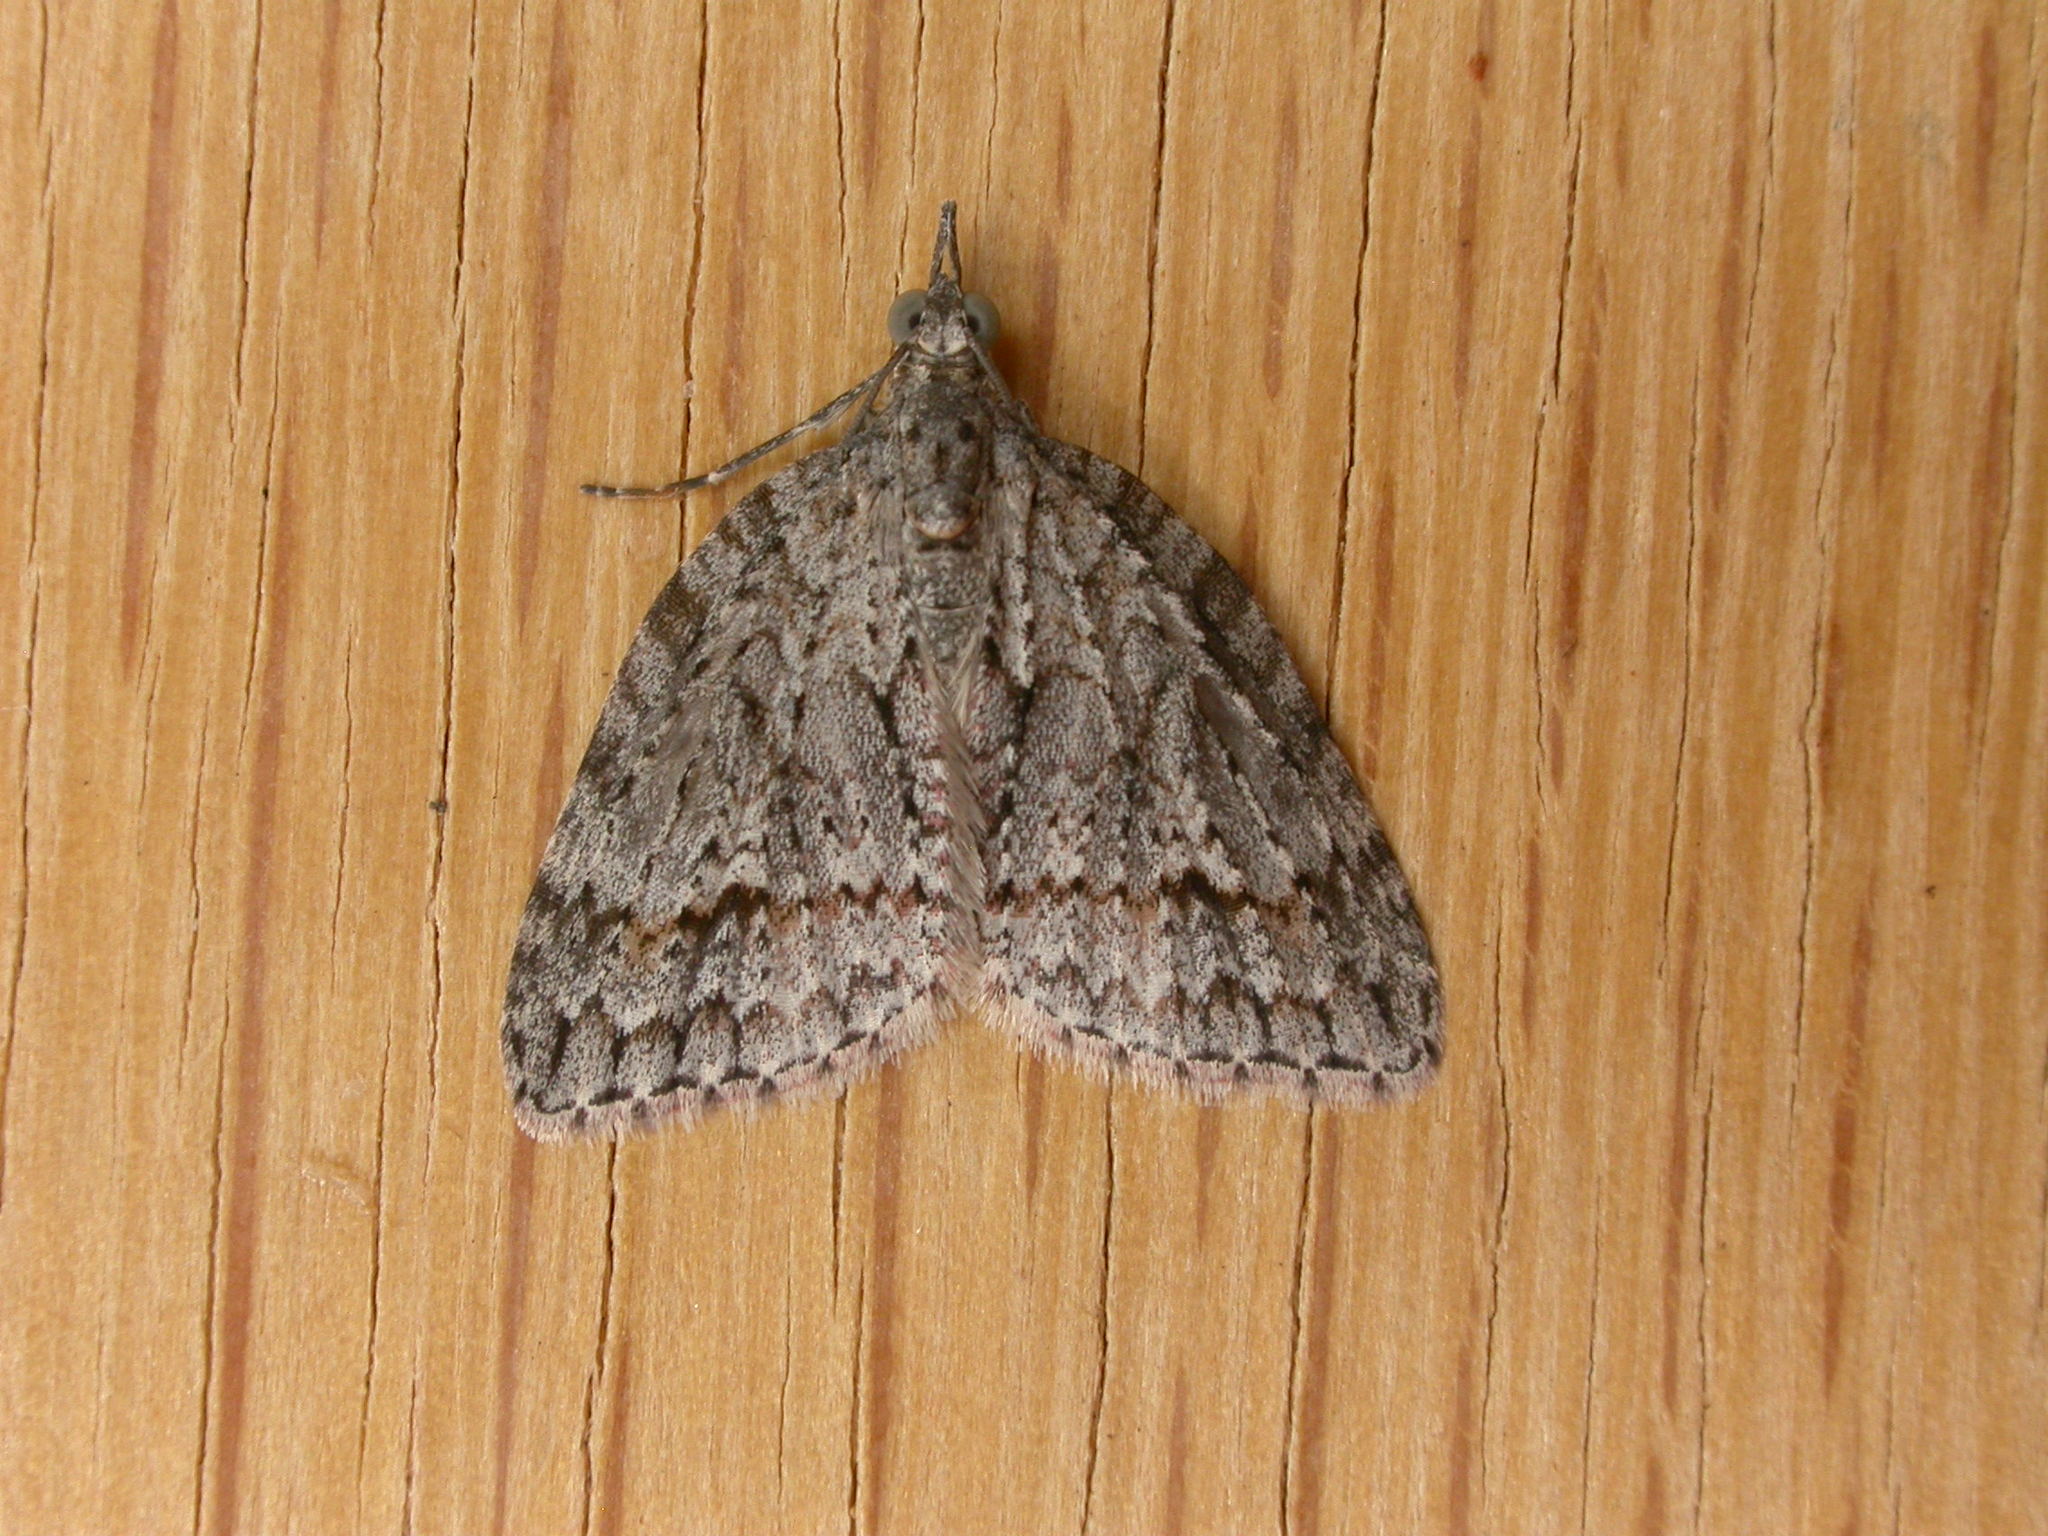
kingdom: Animalia
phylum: Arthropoda
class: Insecta
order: Lepidoptera
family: Geometridae
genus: Microdes
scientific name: Microdes villosata
